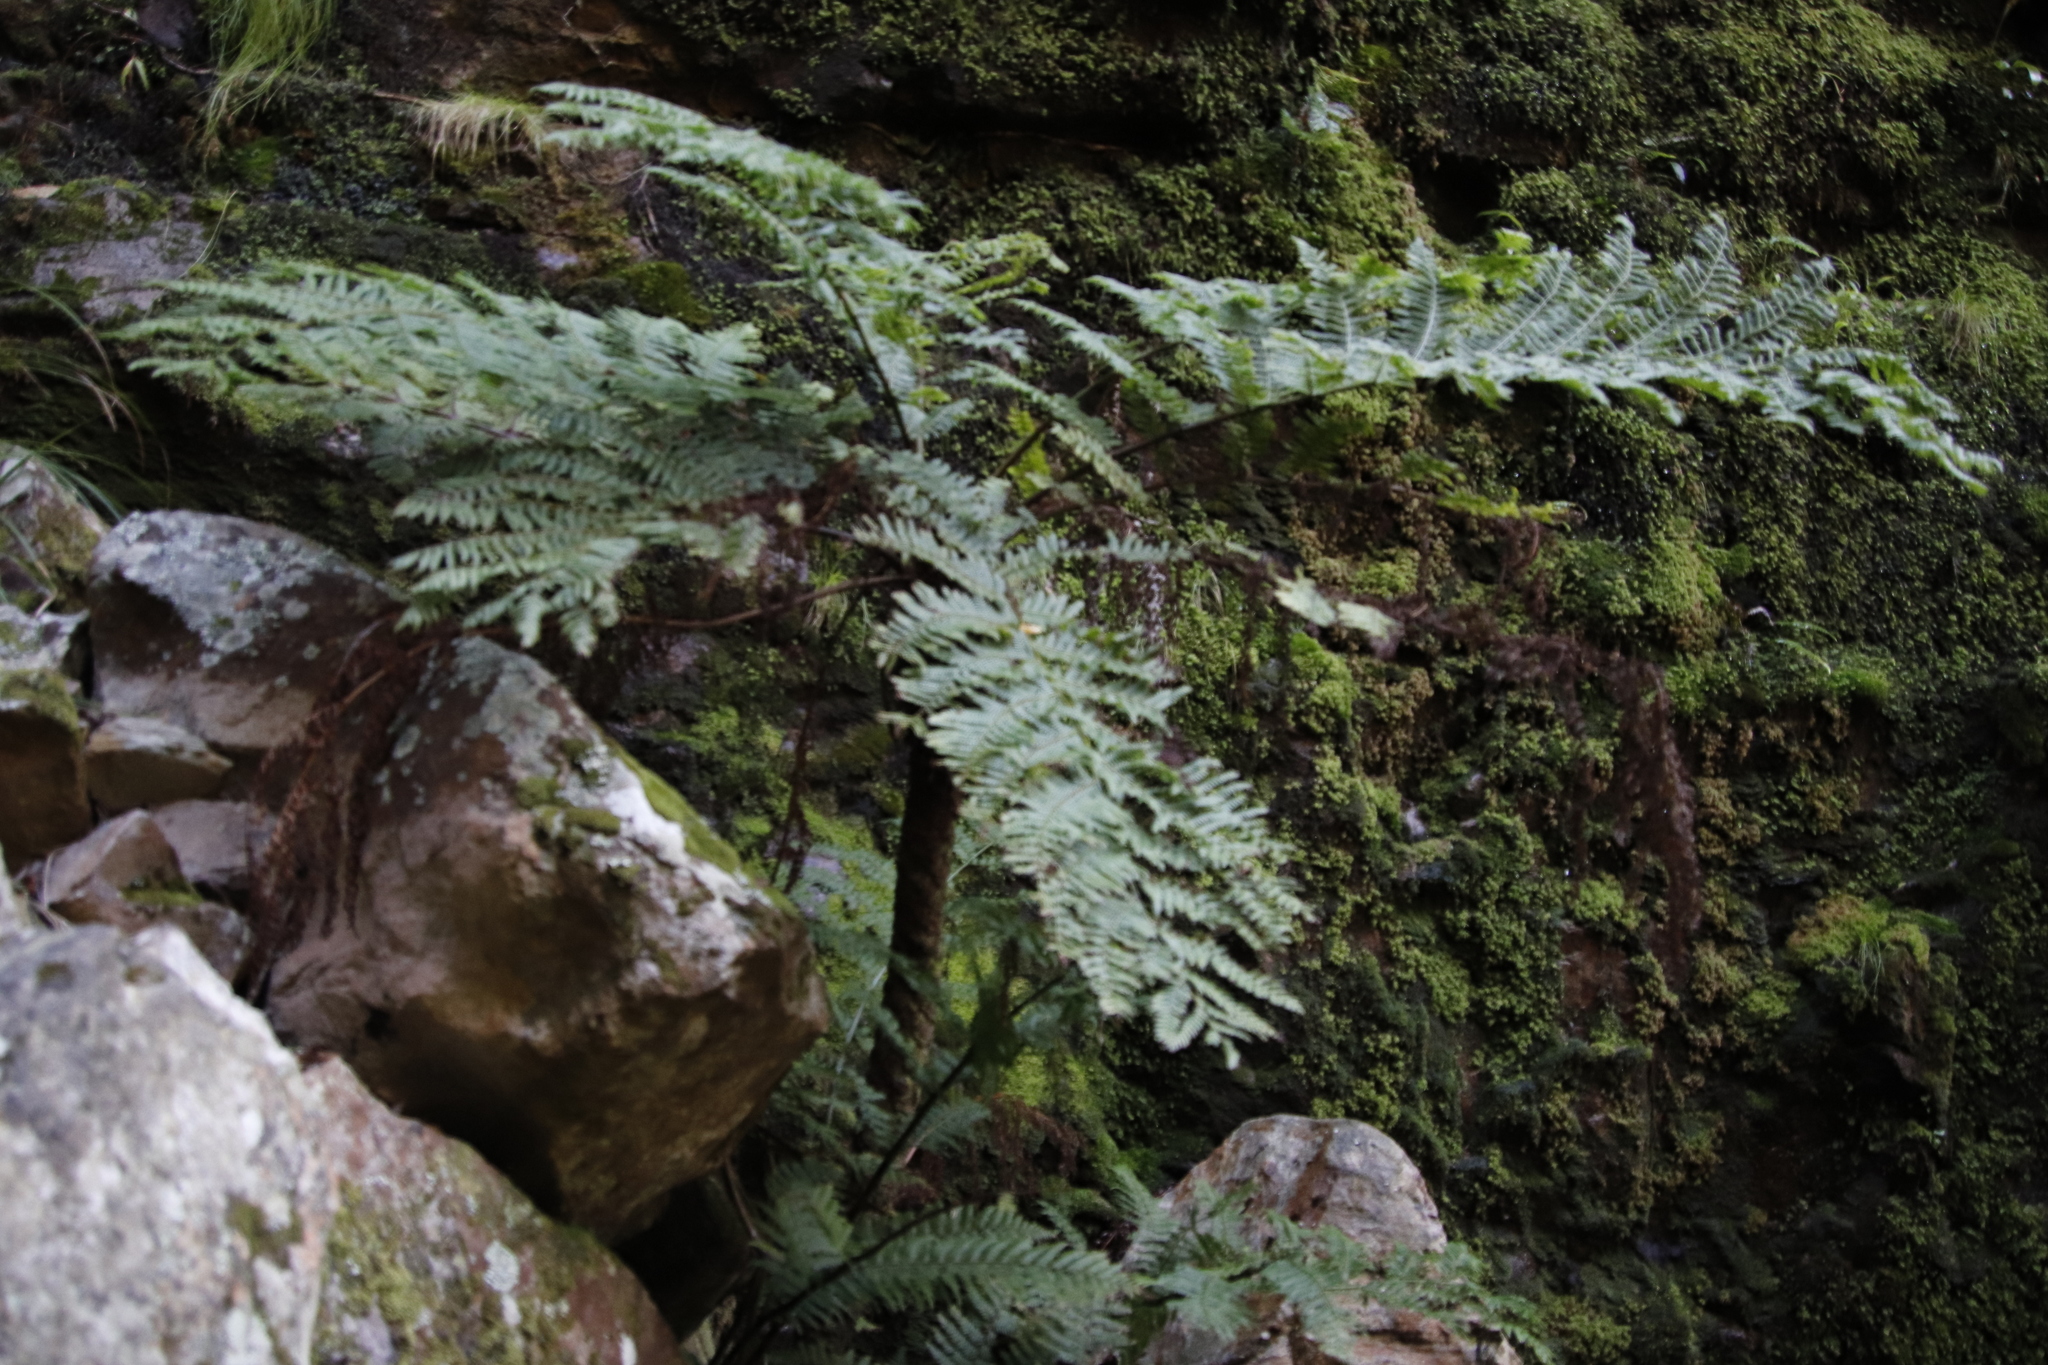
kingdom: Plantae
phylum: Tracheophyta
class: Polypodiopsida
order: Cyatheales
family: Cyatheaceae
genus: Gymnosphaera
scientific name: Gymnosphaera capensis
